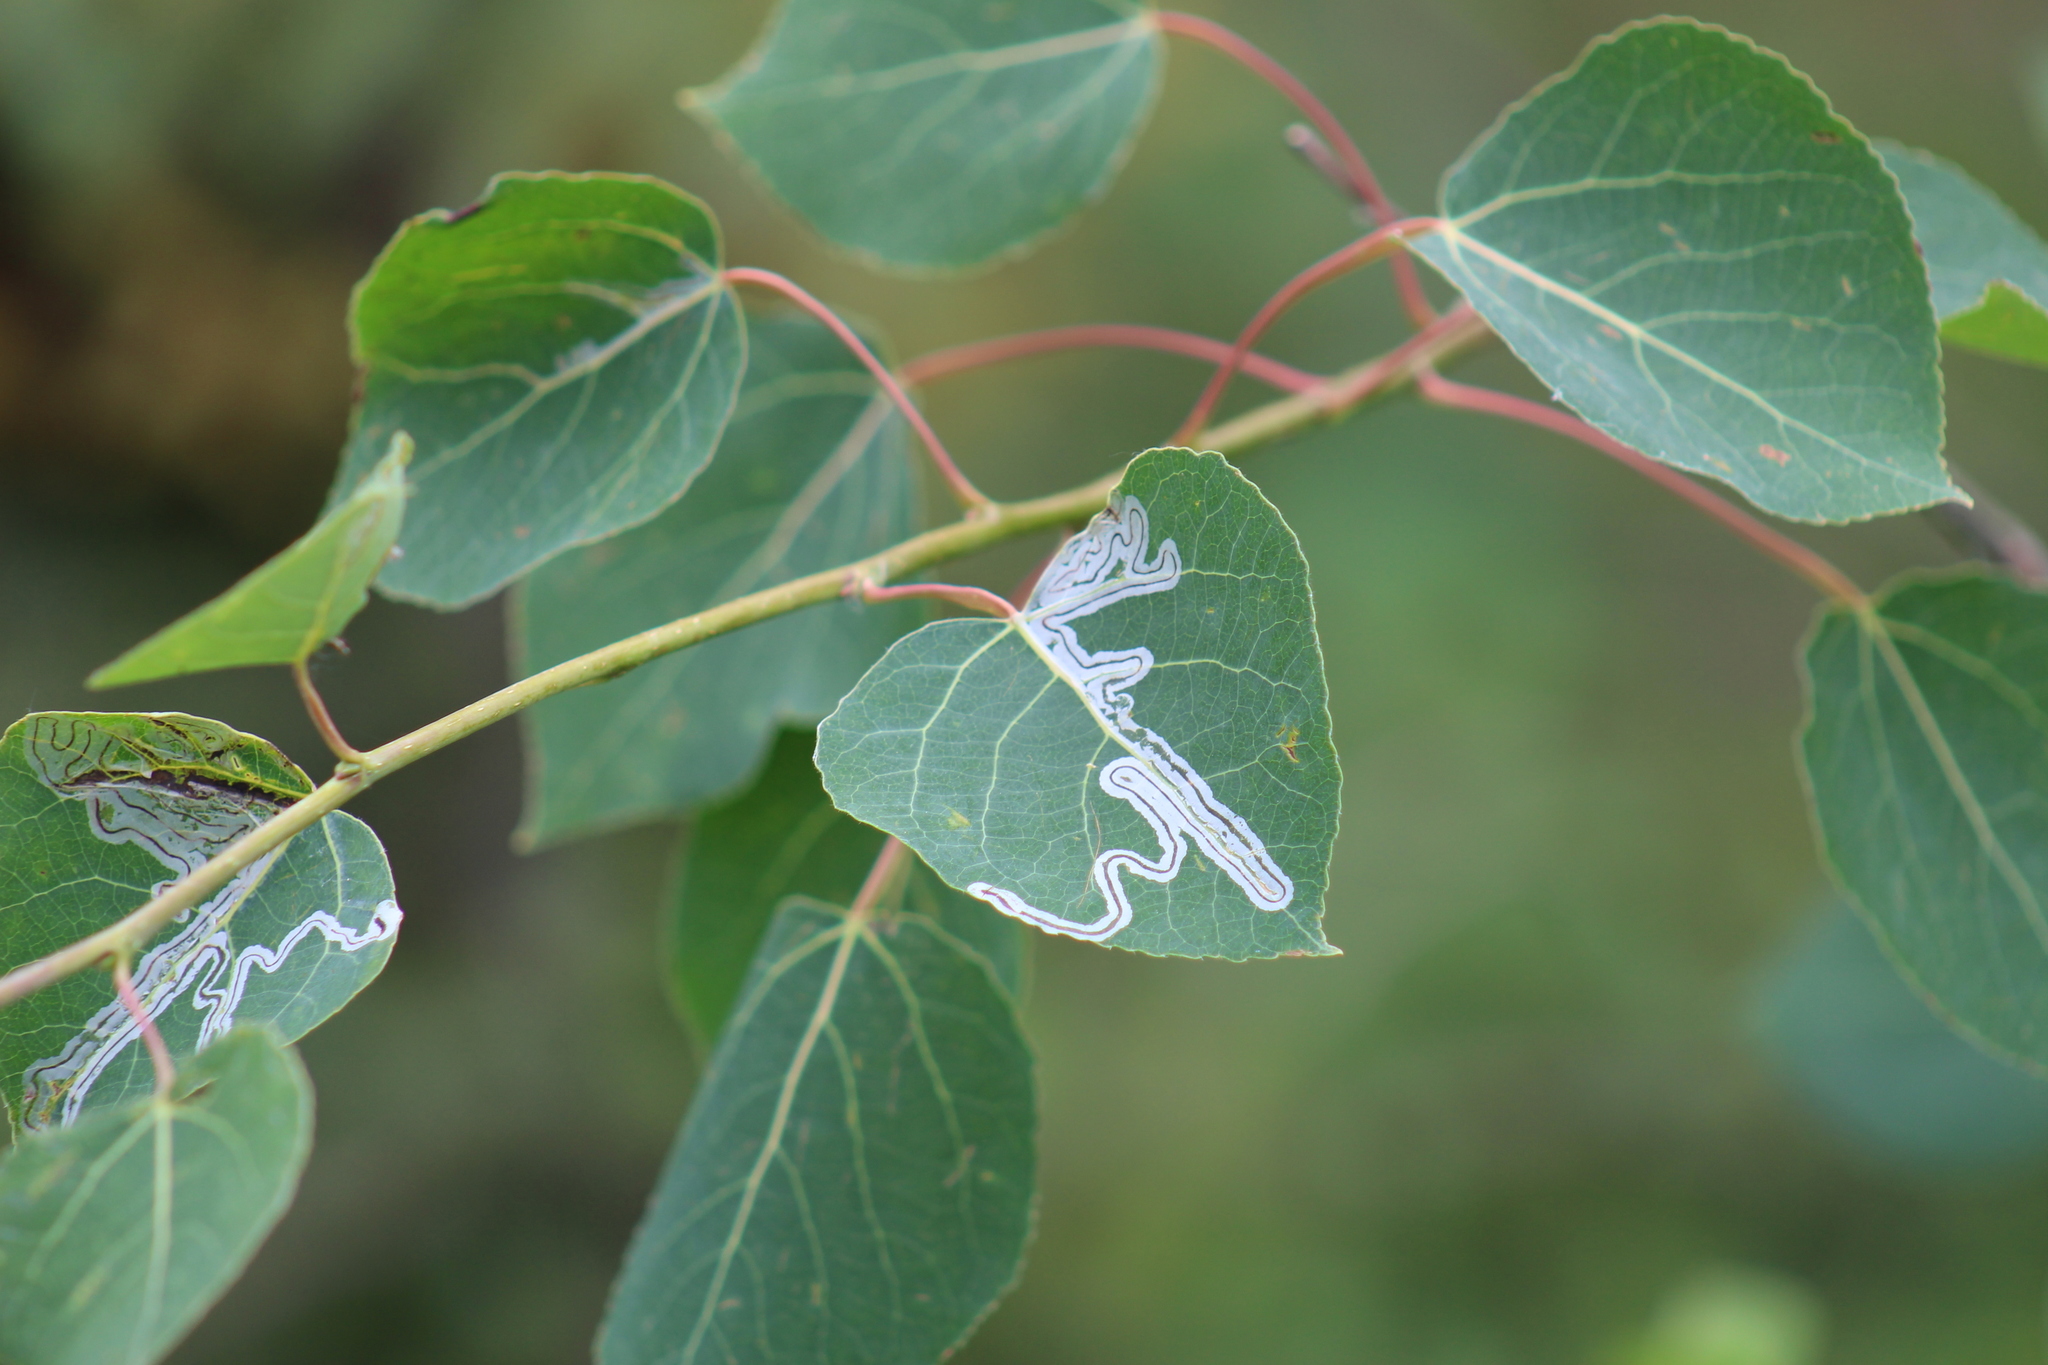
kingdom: Animalia
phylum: Arthropoda
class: Insecta
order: Lepidoptera
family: Gracillariidae
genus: Phyllocnistis
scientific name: Phyllocnistis populiella
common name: Aspen serpentine leafminer moth
